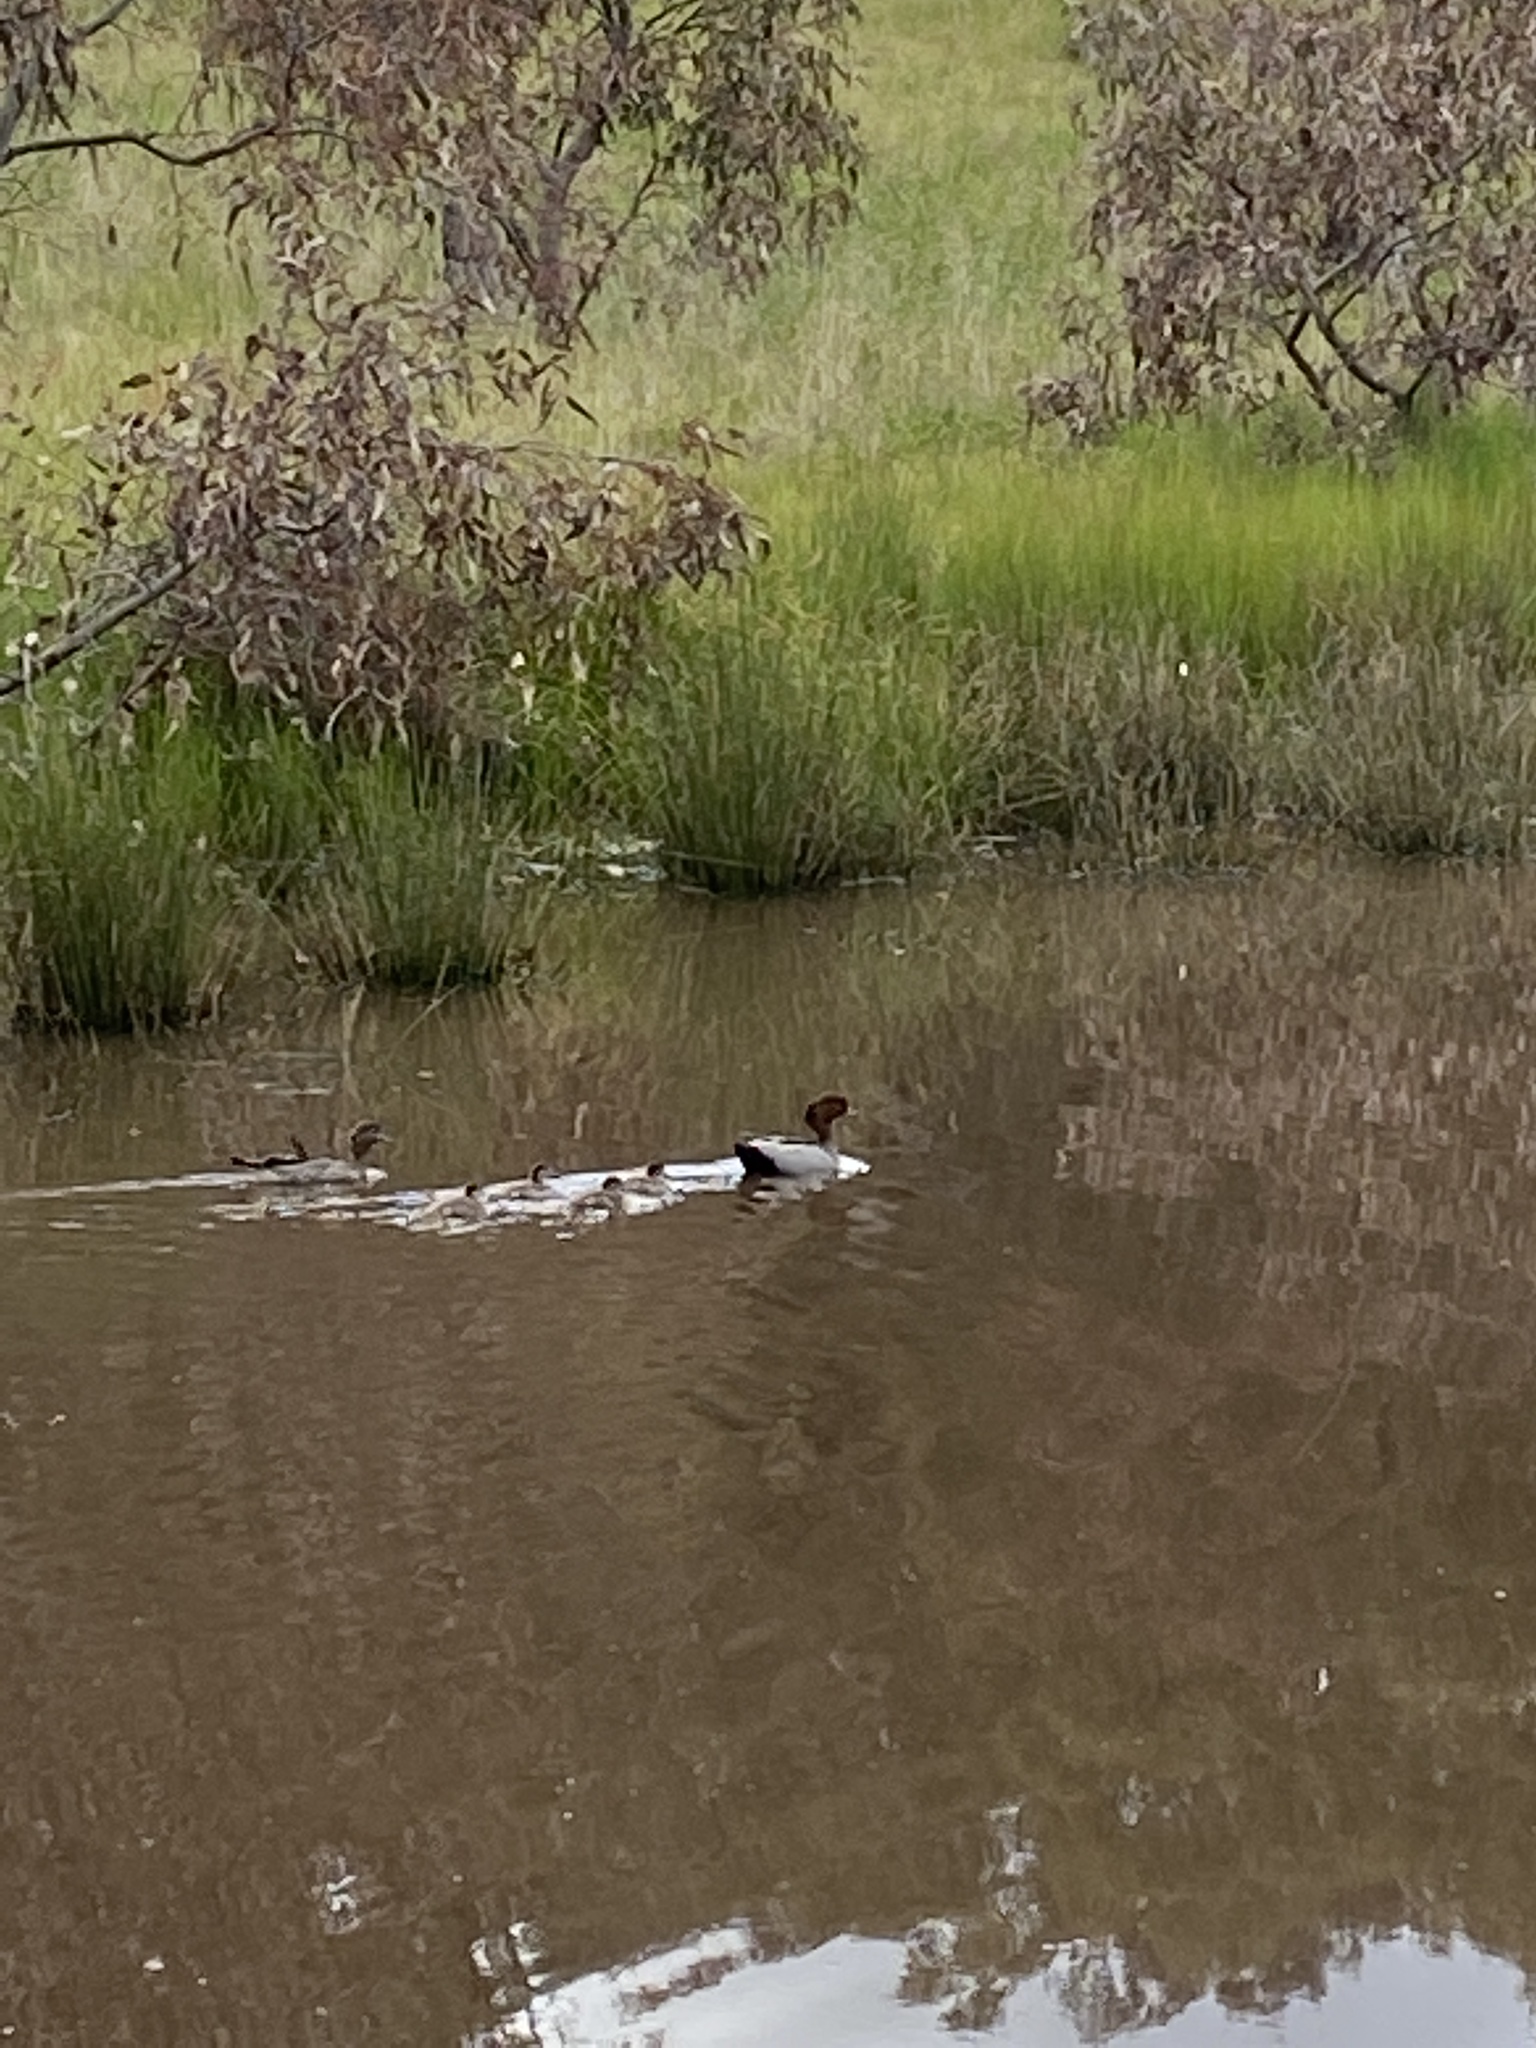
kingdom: Animalia
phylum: Chordata
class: Aves
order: Anseriformes
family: Anatidae
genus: Chenonetta
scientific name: Chenonetta jubata
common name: Maned duck
